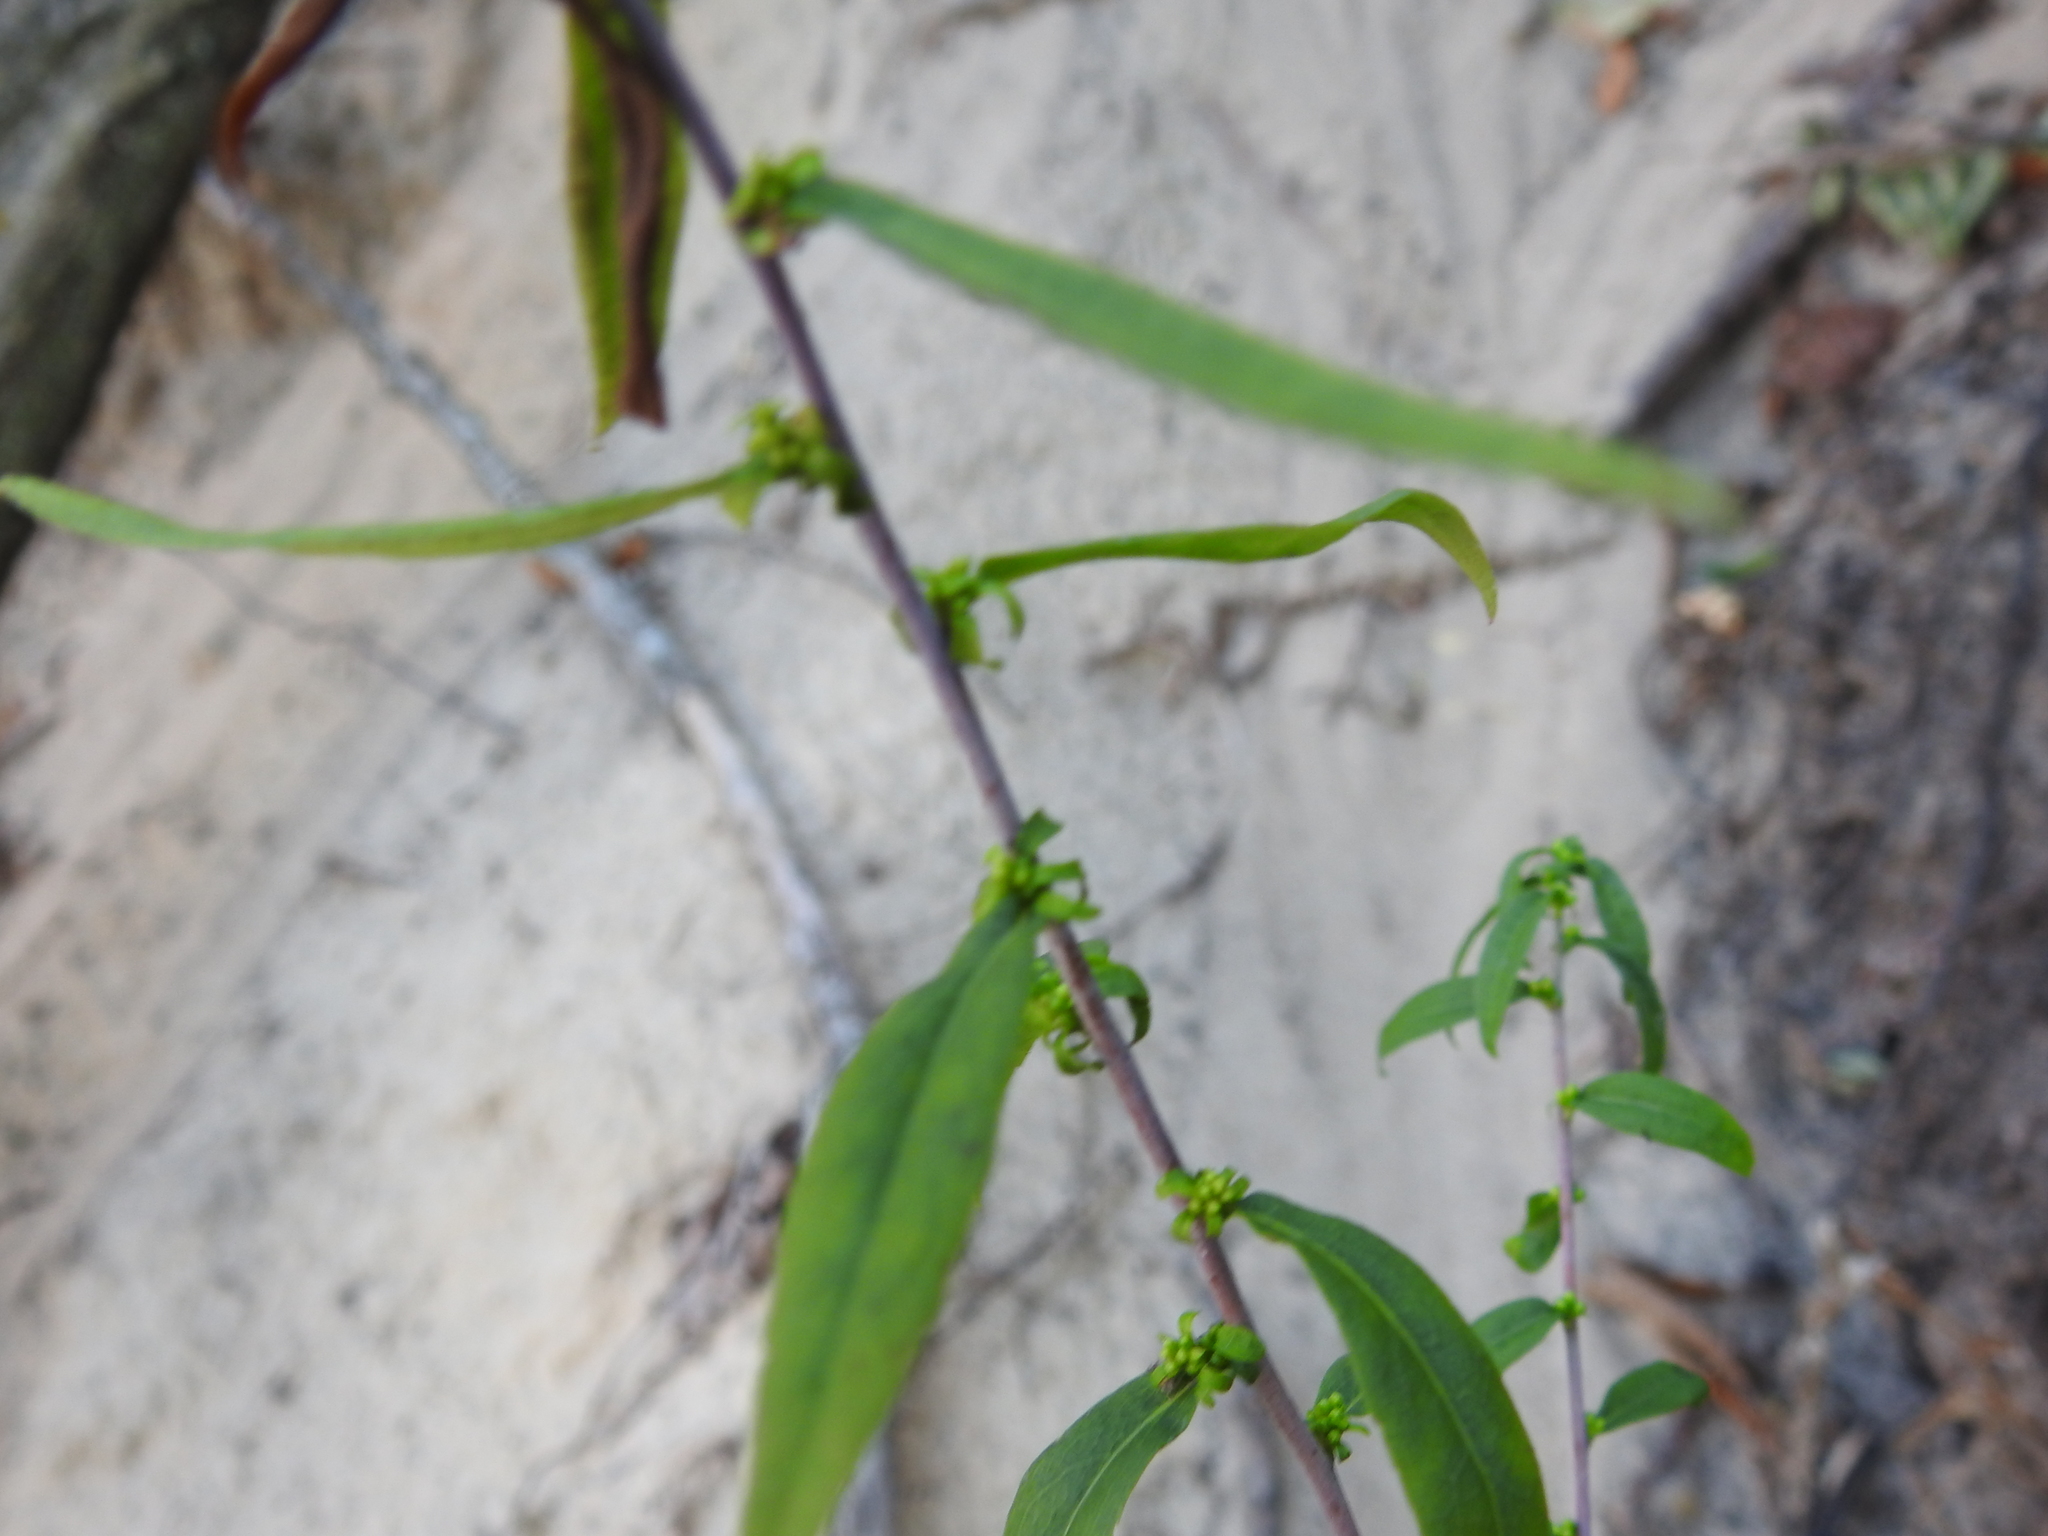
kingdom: Plantae
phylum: Tracheophyta
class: Magnoliopsida
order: Asterales
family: Asteraceae
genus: Solidago
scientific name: Solidago caesia
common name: Woodland goldenrod
